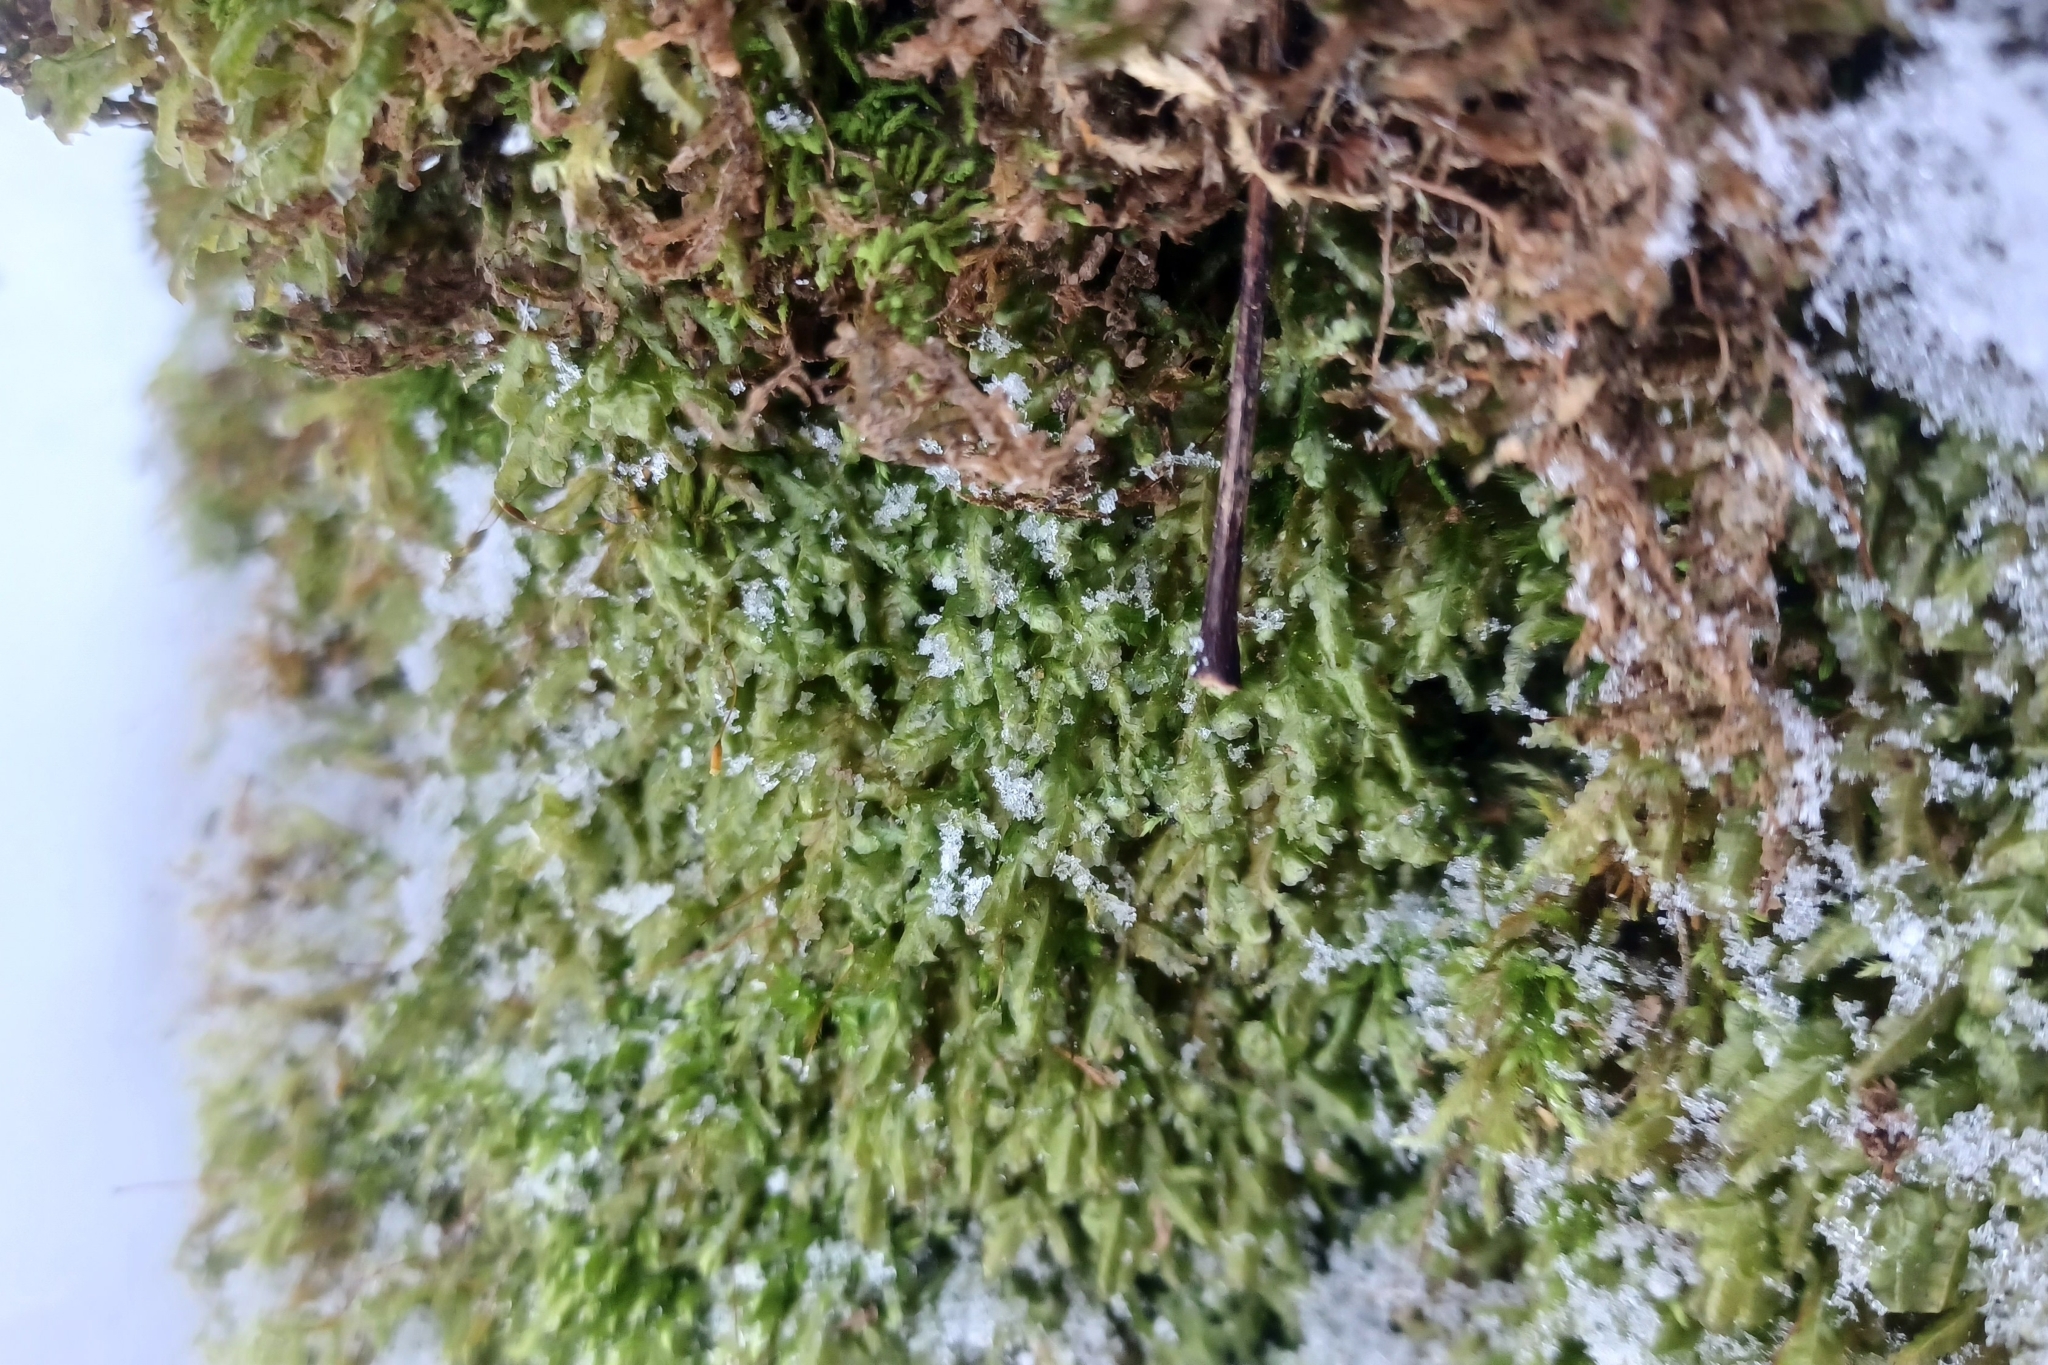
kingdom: Plantae
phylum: Bryophyta
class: Bryopsida
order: Hypnales
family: Neckeraceae
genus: Homalia
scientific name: Homalia trichomanoides
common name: Lime homalia moss
